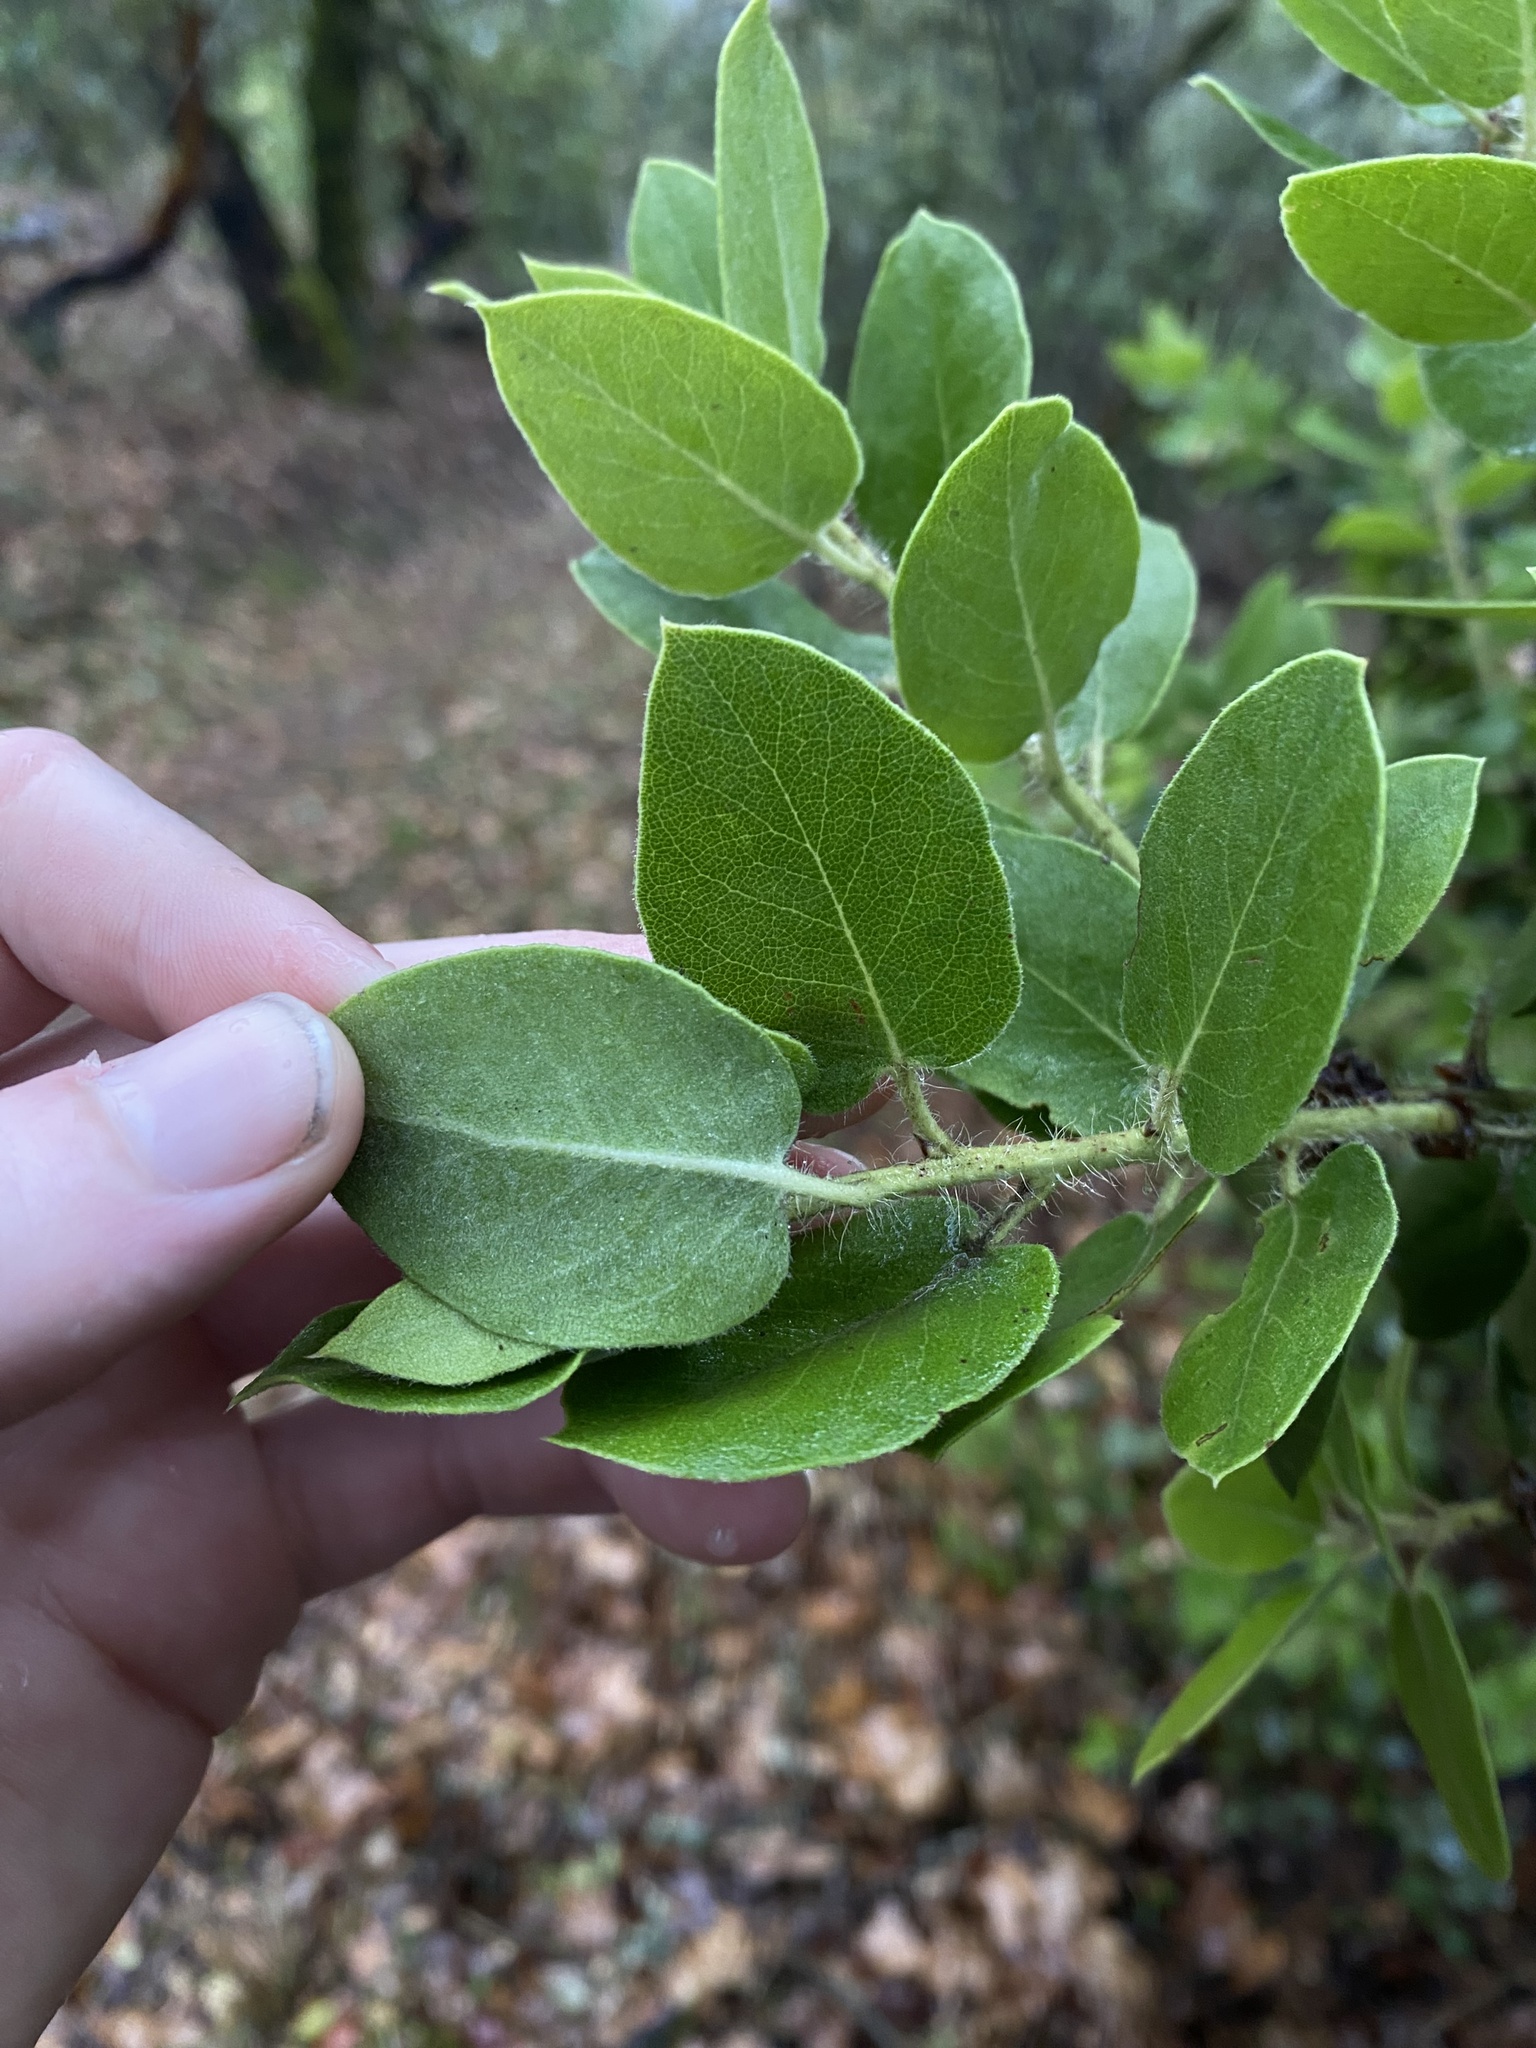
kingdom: Plantae
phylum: Tracheophyta
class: Magnoliopsida
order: Ericales
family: Ericaceae
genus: Arctostaphylos
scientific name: Arctostaphylos crustacea
